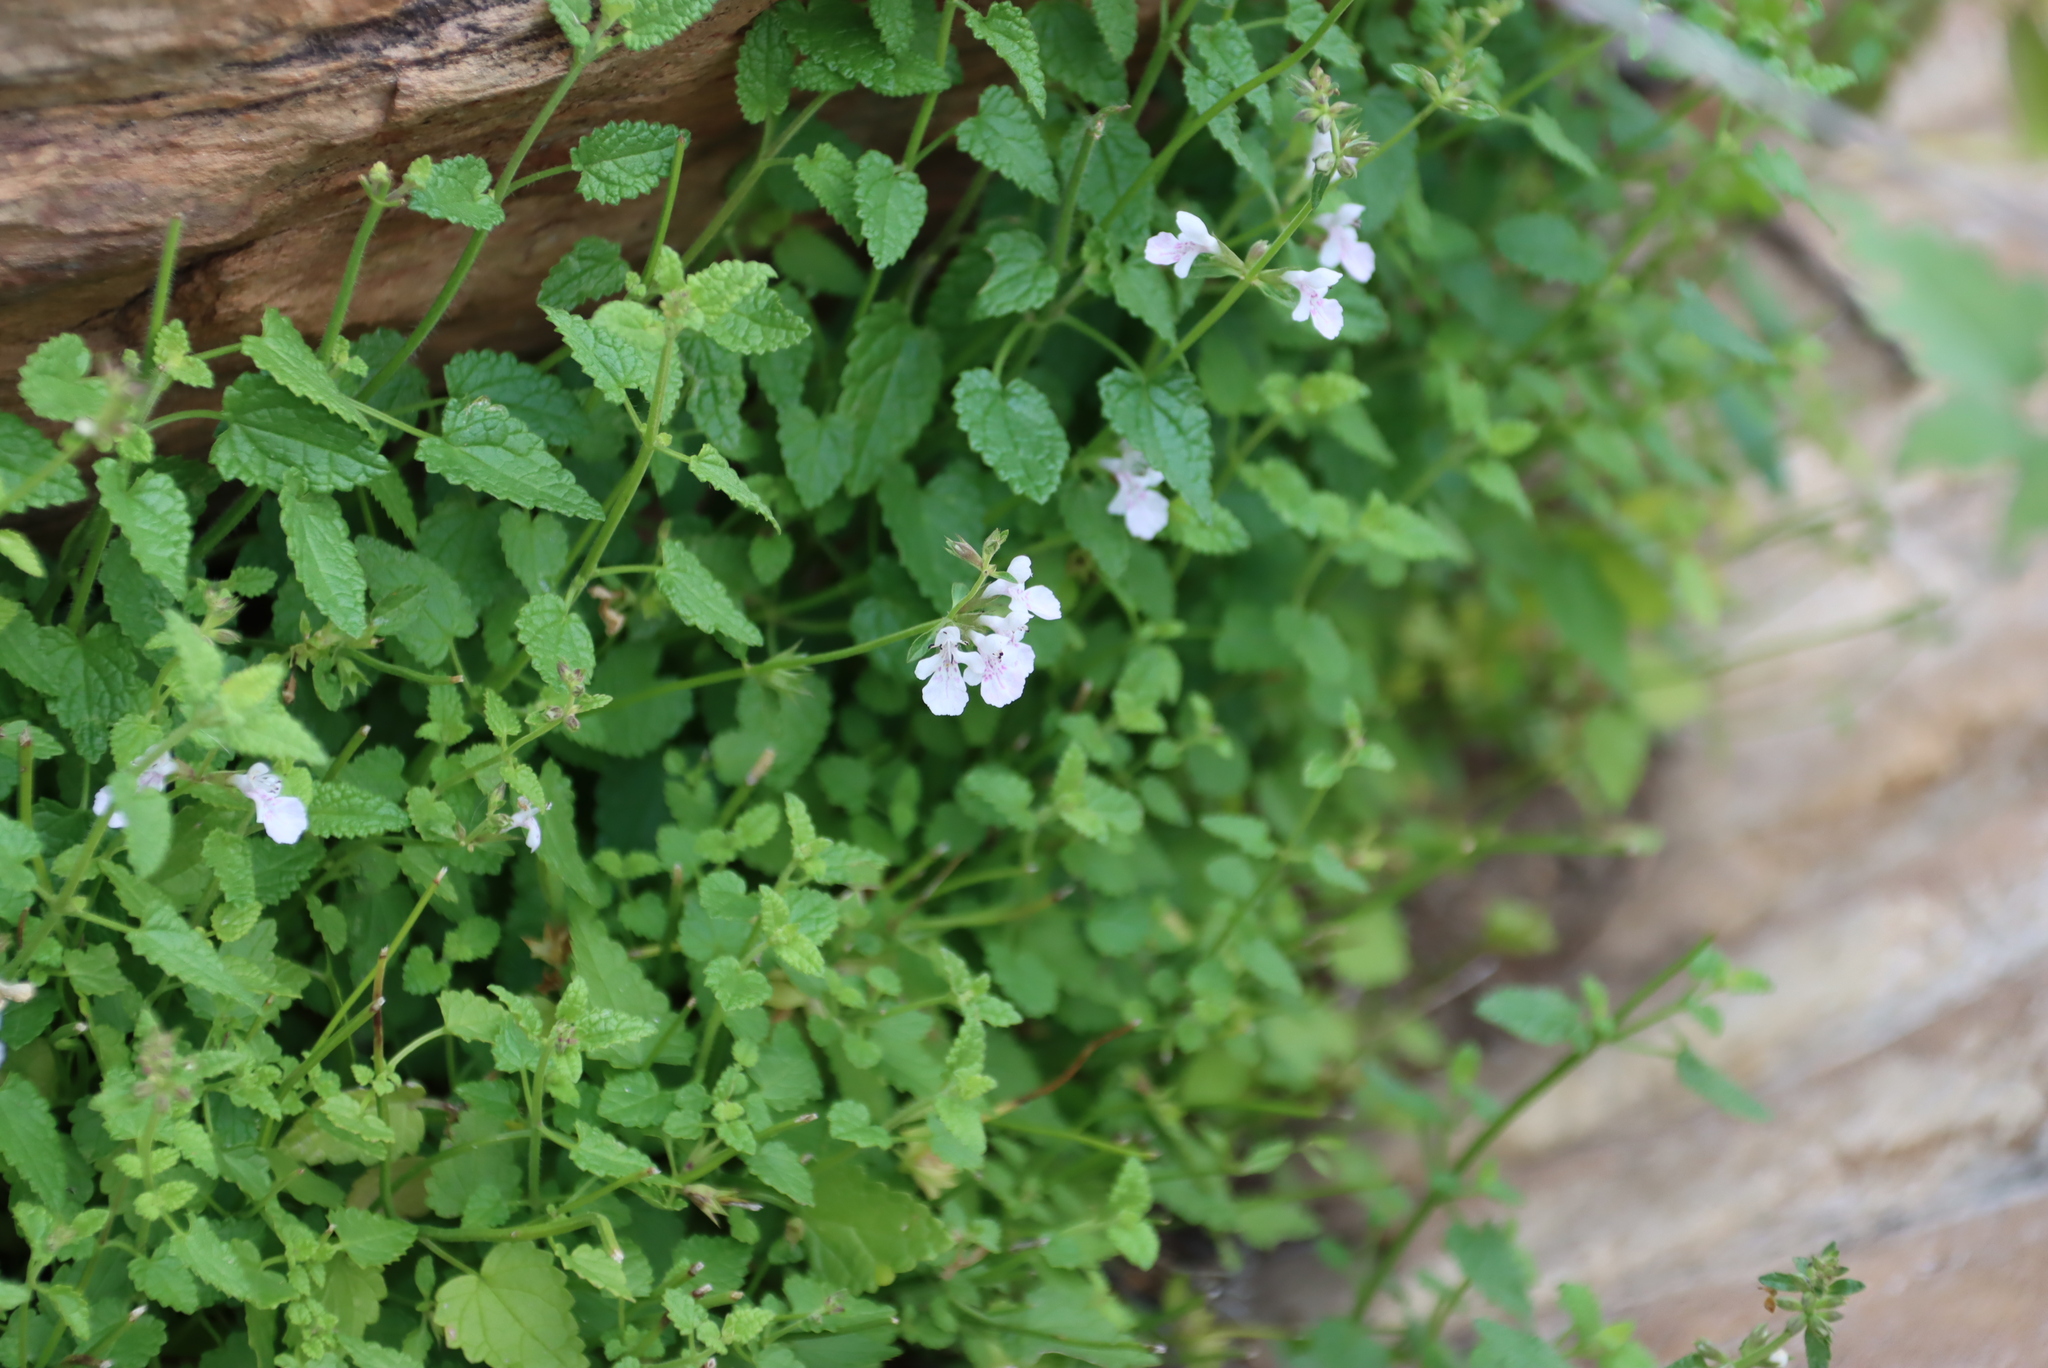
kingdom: Plantae
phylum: Tracheophyta
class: Magnoliopsida
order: Lamiales
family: Lamiaceae
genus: Stachys
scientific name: Stachys aethiopica
